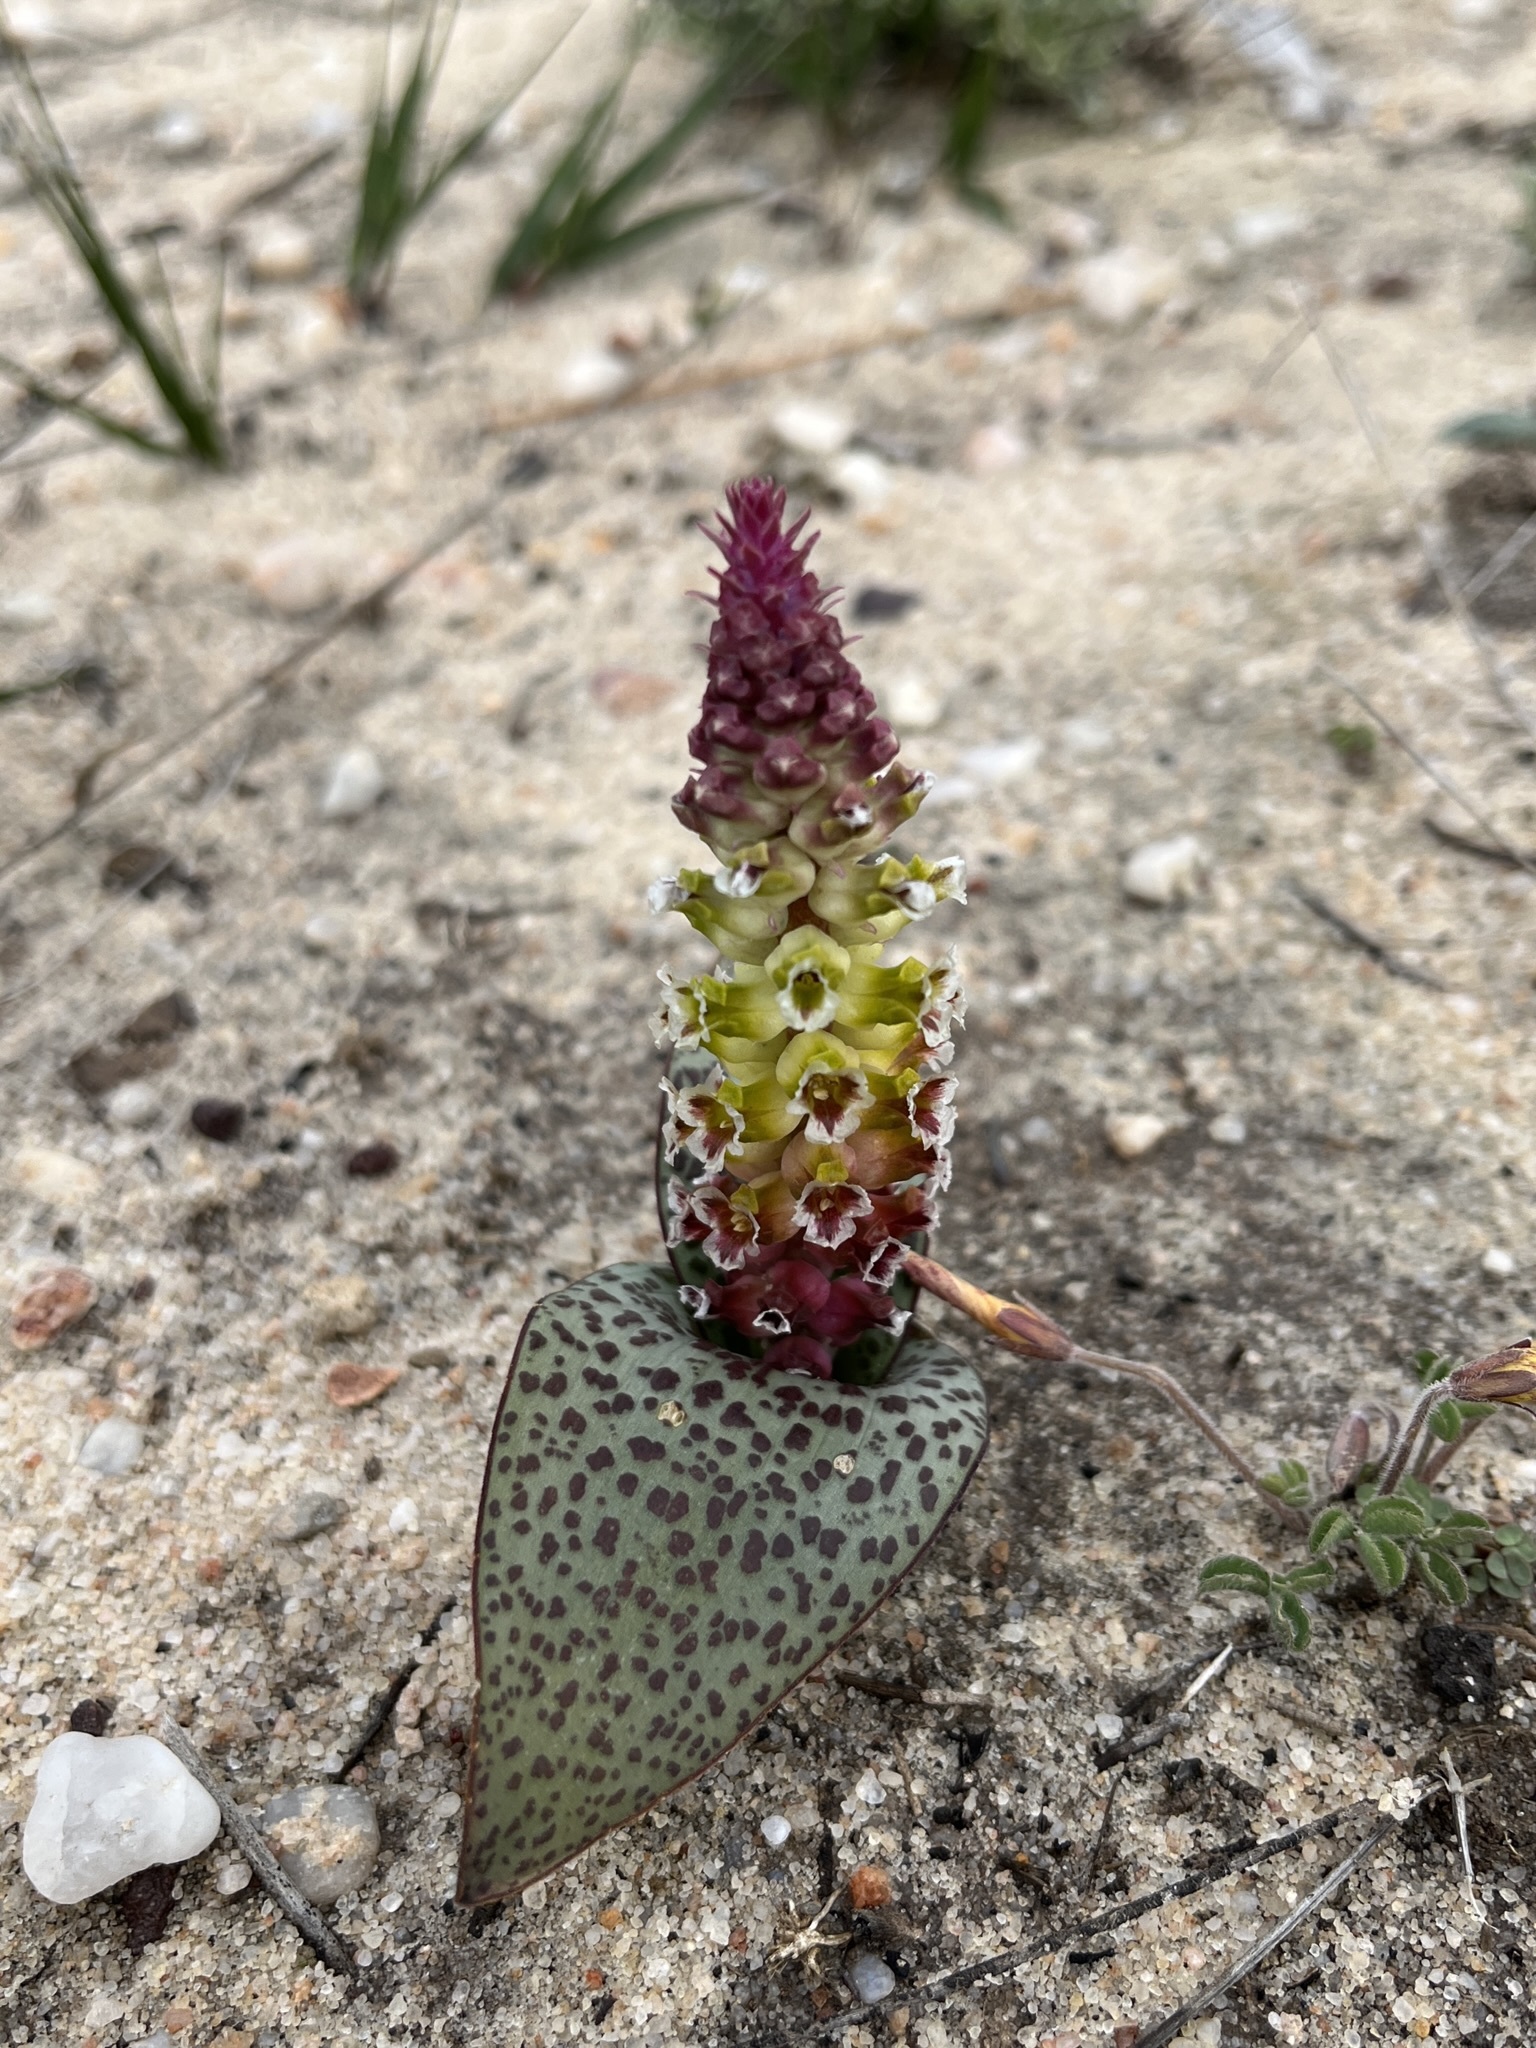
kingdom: Plantae
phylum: Tracheophyta
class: Liliopsida
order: Asparagales
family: Asparagaceae
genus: Lachenalia
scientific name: Lachenalia membranacea
